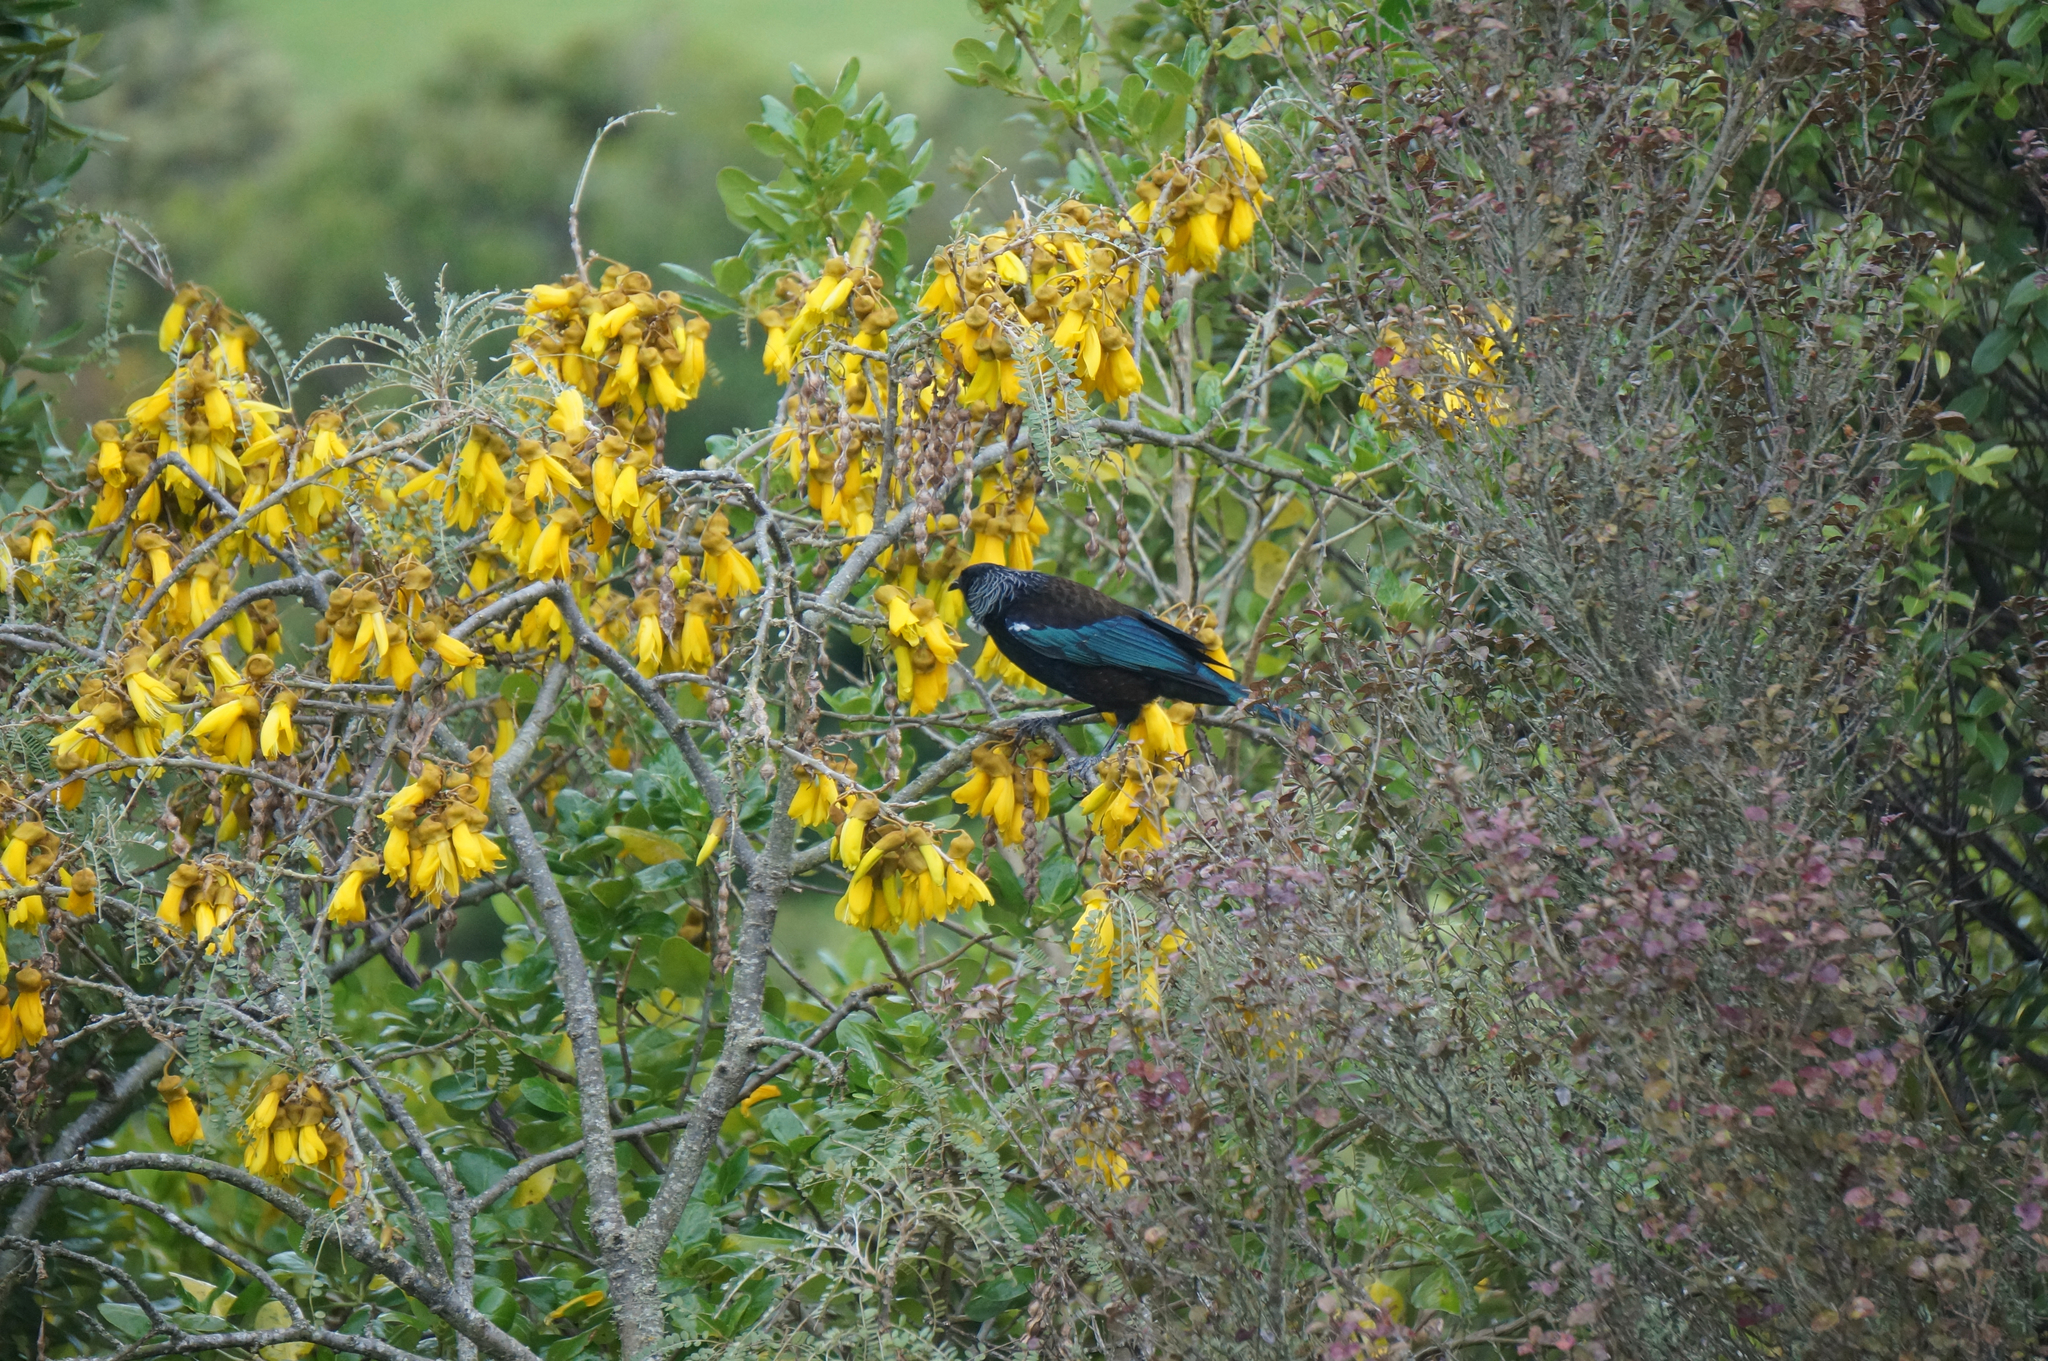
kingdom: Plantae
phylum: Tracheophyta
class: Magnoliopsida
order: Fabales
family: Fabaceae
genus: Sophora
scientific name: Sophora tetraptera
